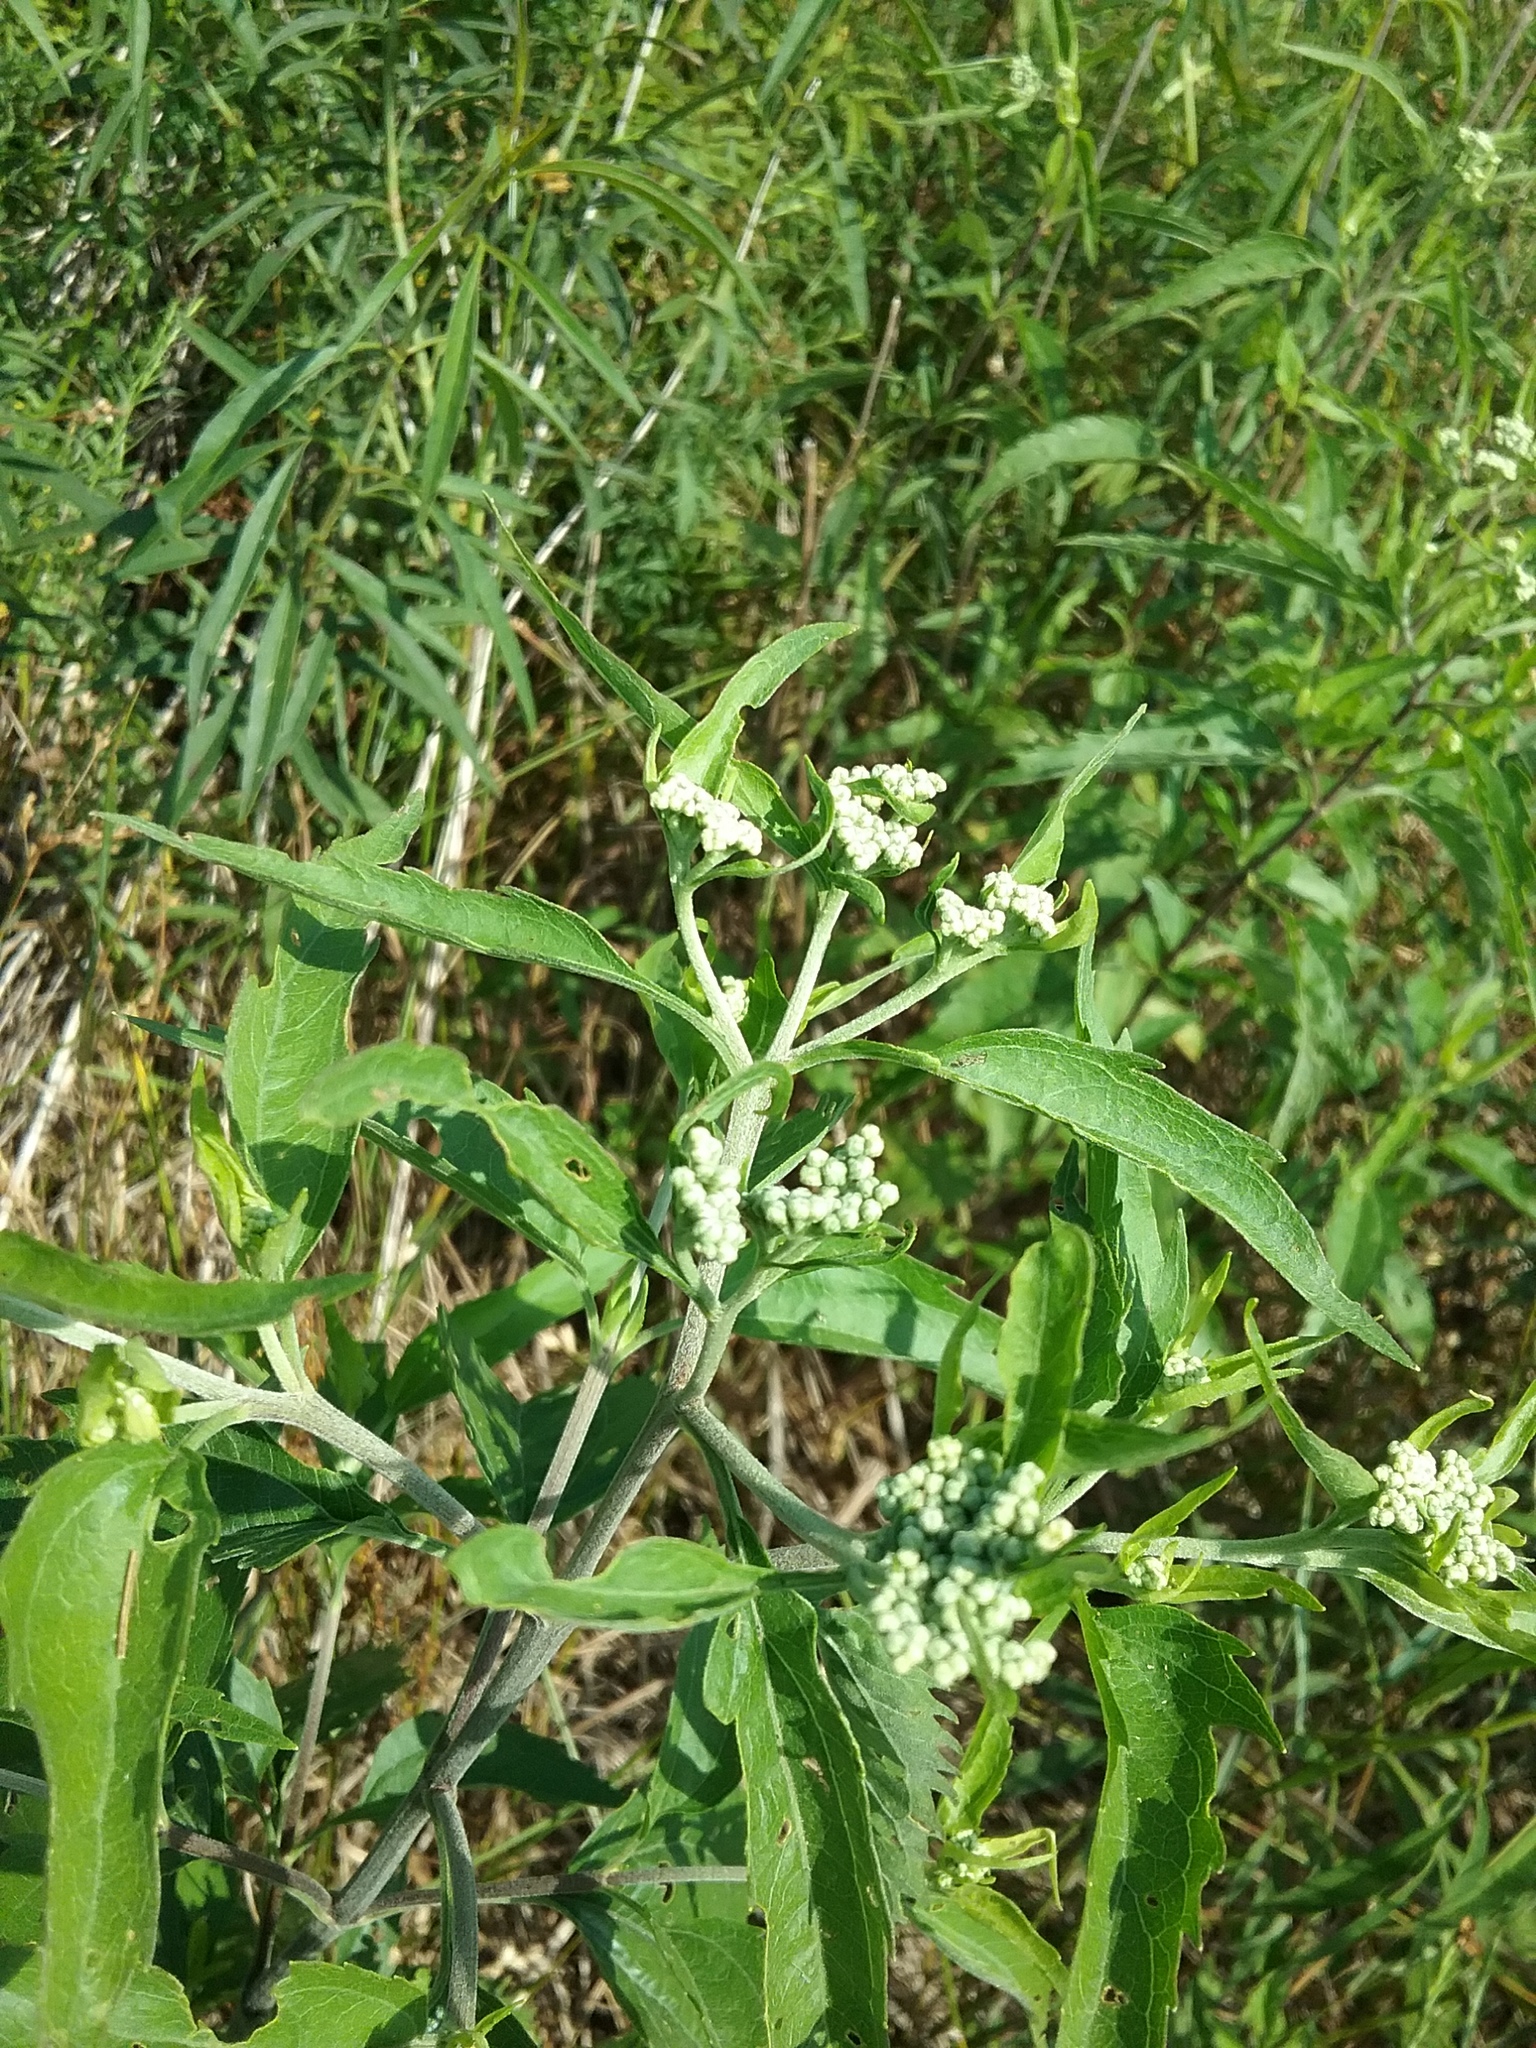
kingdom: Plantae
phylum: Tracheophyta
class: Magnoliopsida
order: Asterales
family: Asteraceae
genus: Eupatorium
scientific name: Eupatorium serotinum
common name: Late boneset
